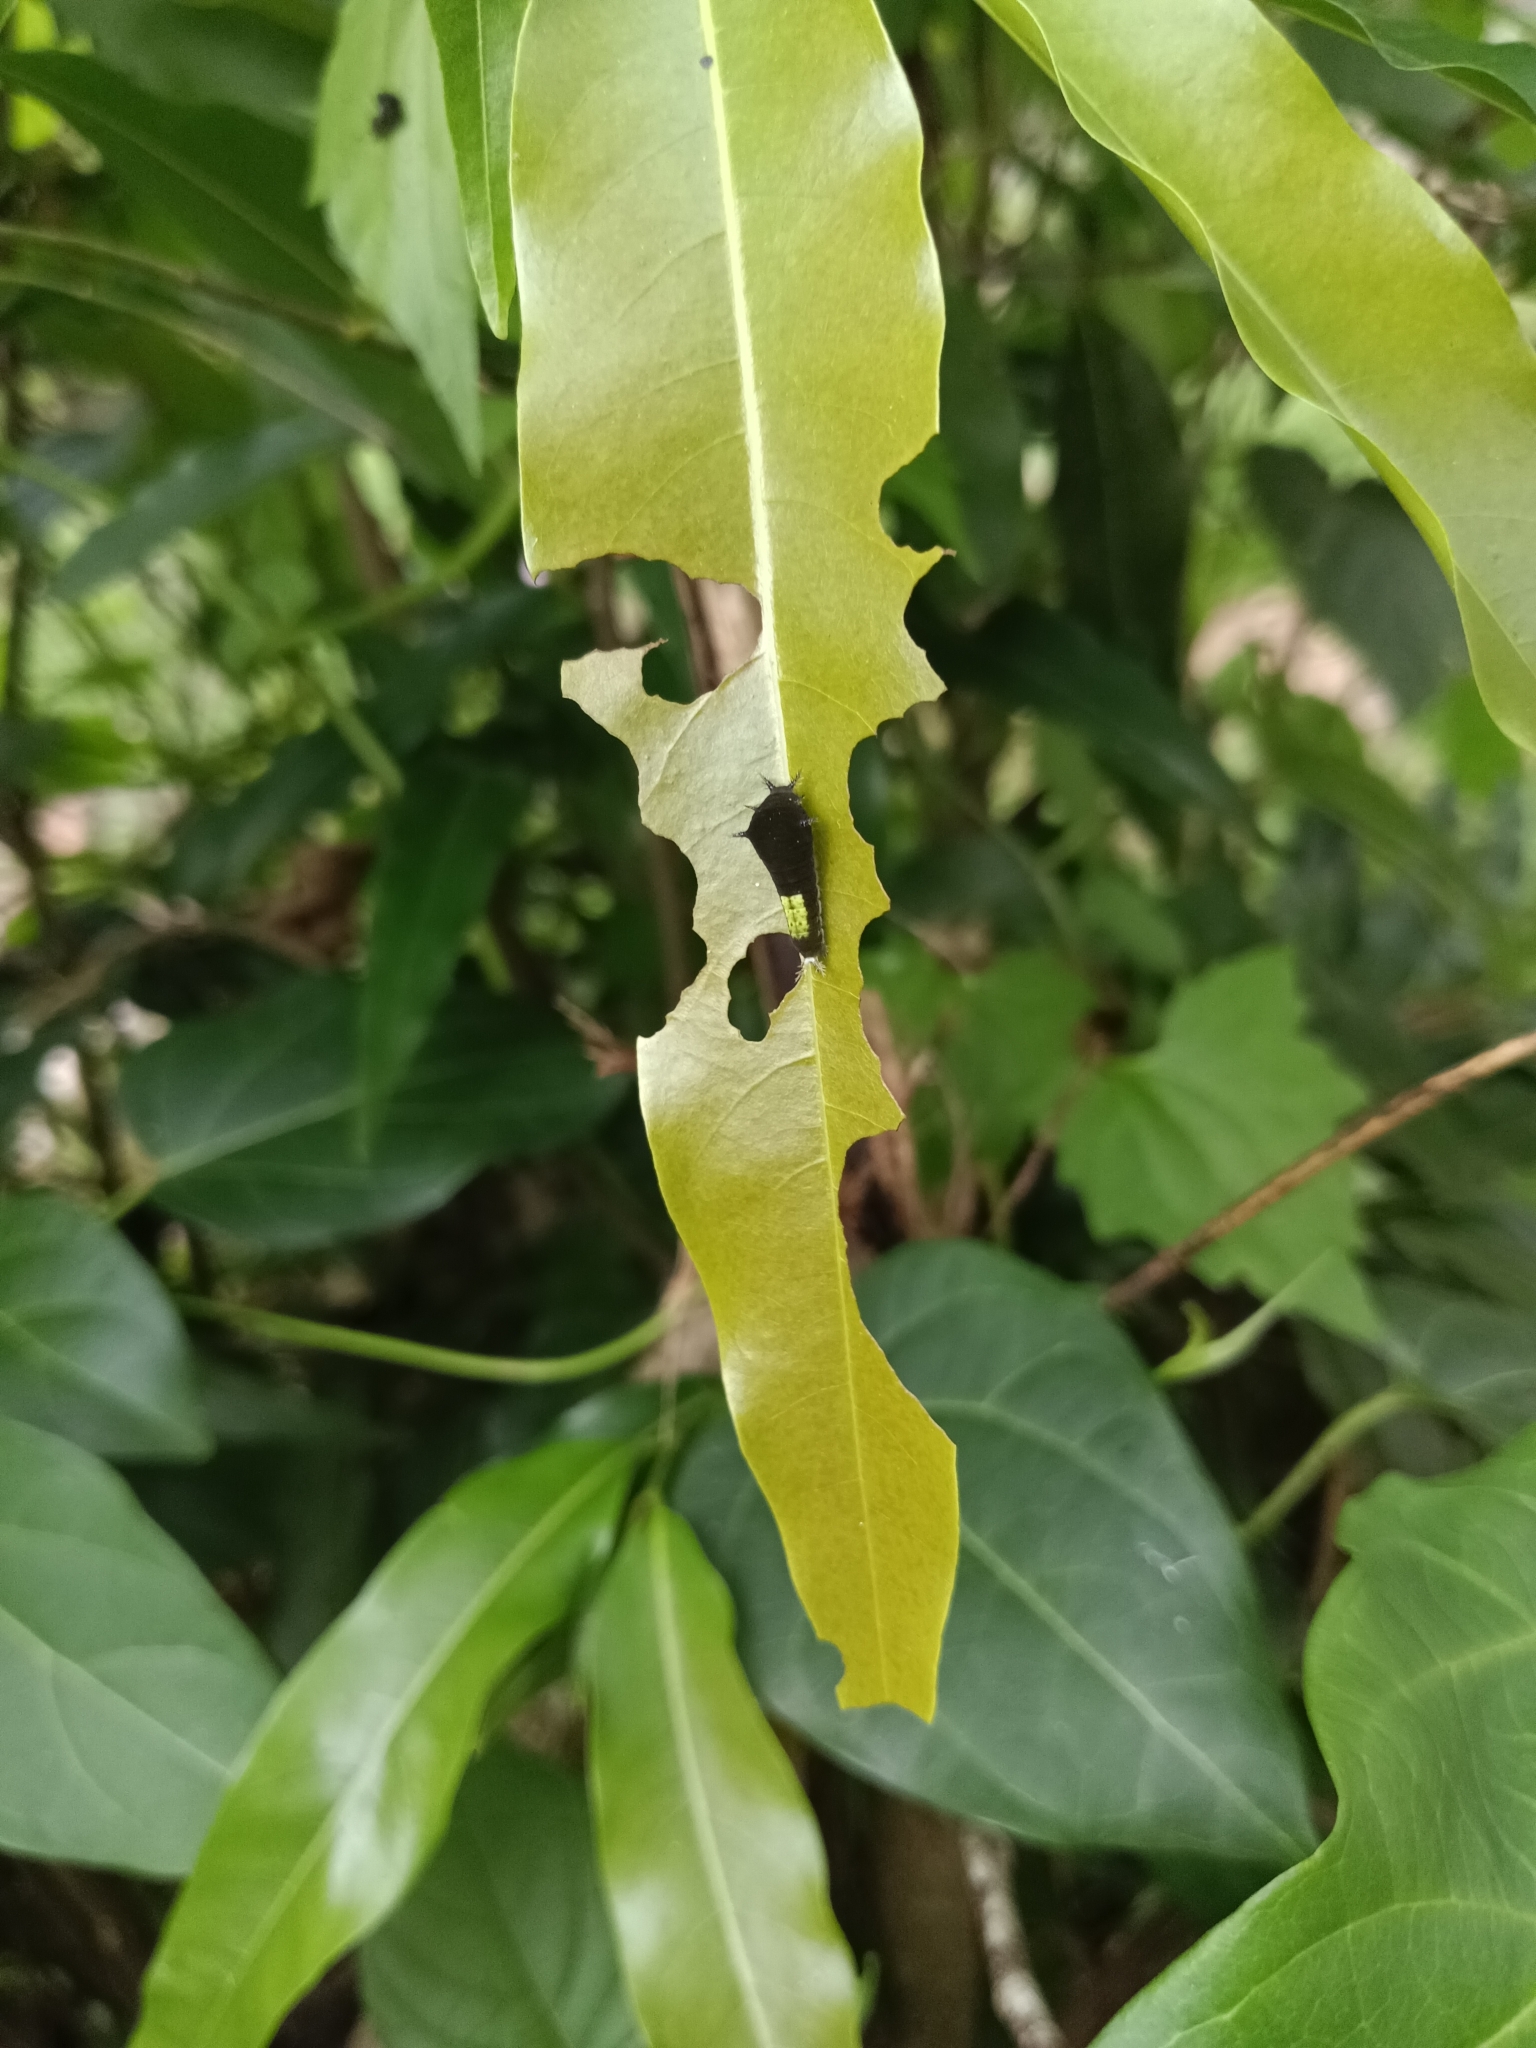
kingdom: Animalia
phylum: Arthropoda
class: Insecta
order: Lepidoptera
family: Papilionidae
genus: Graphium
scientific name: Graphium agamemnon
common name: Tailed jay
